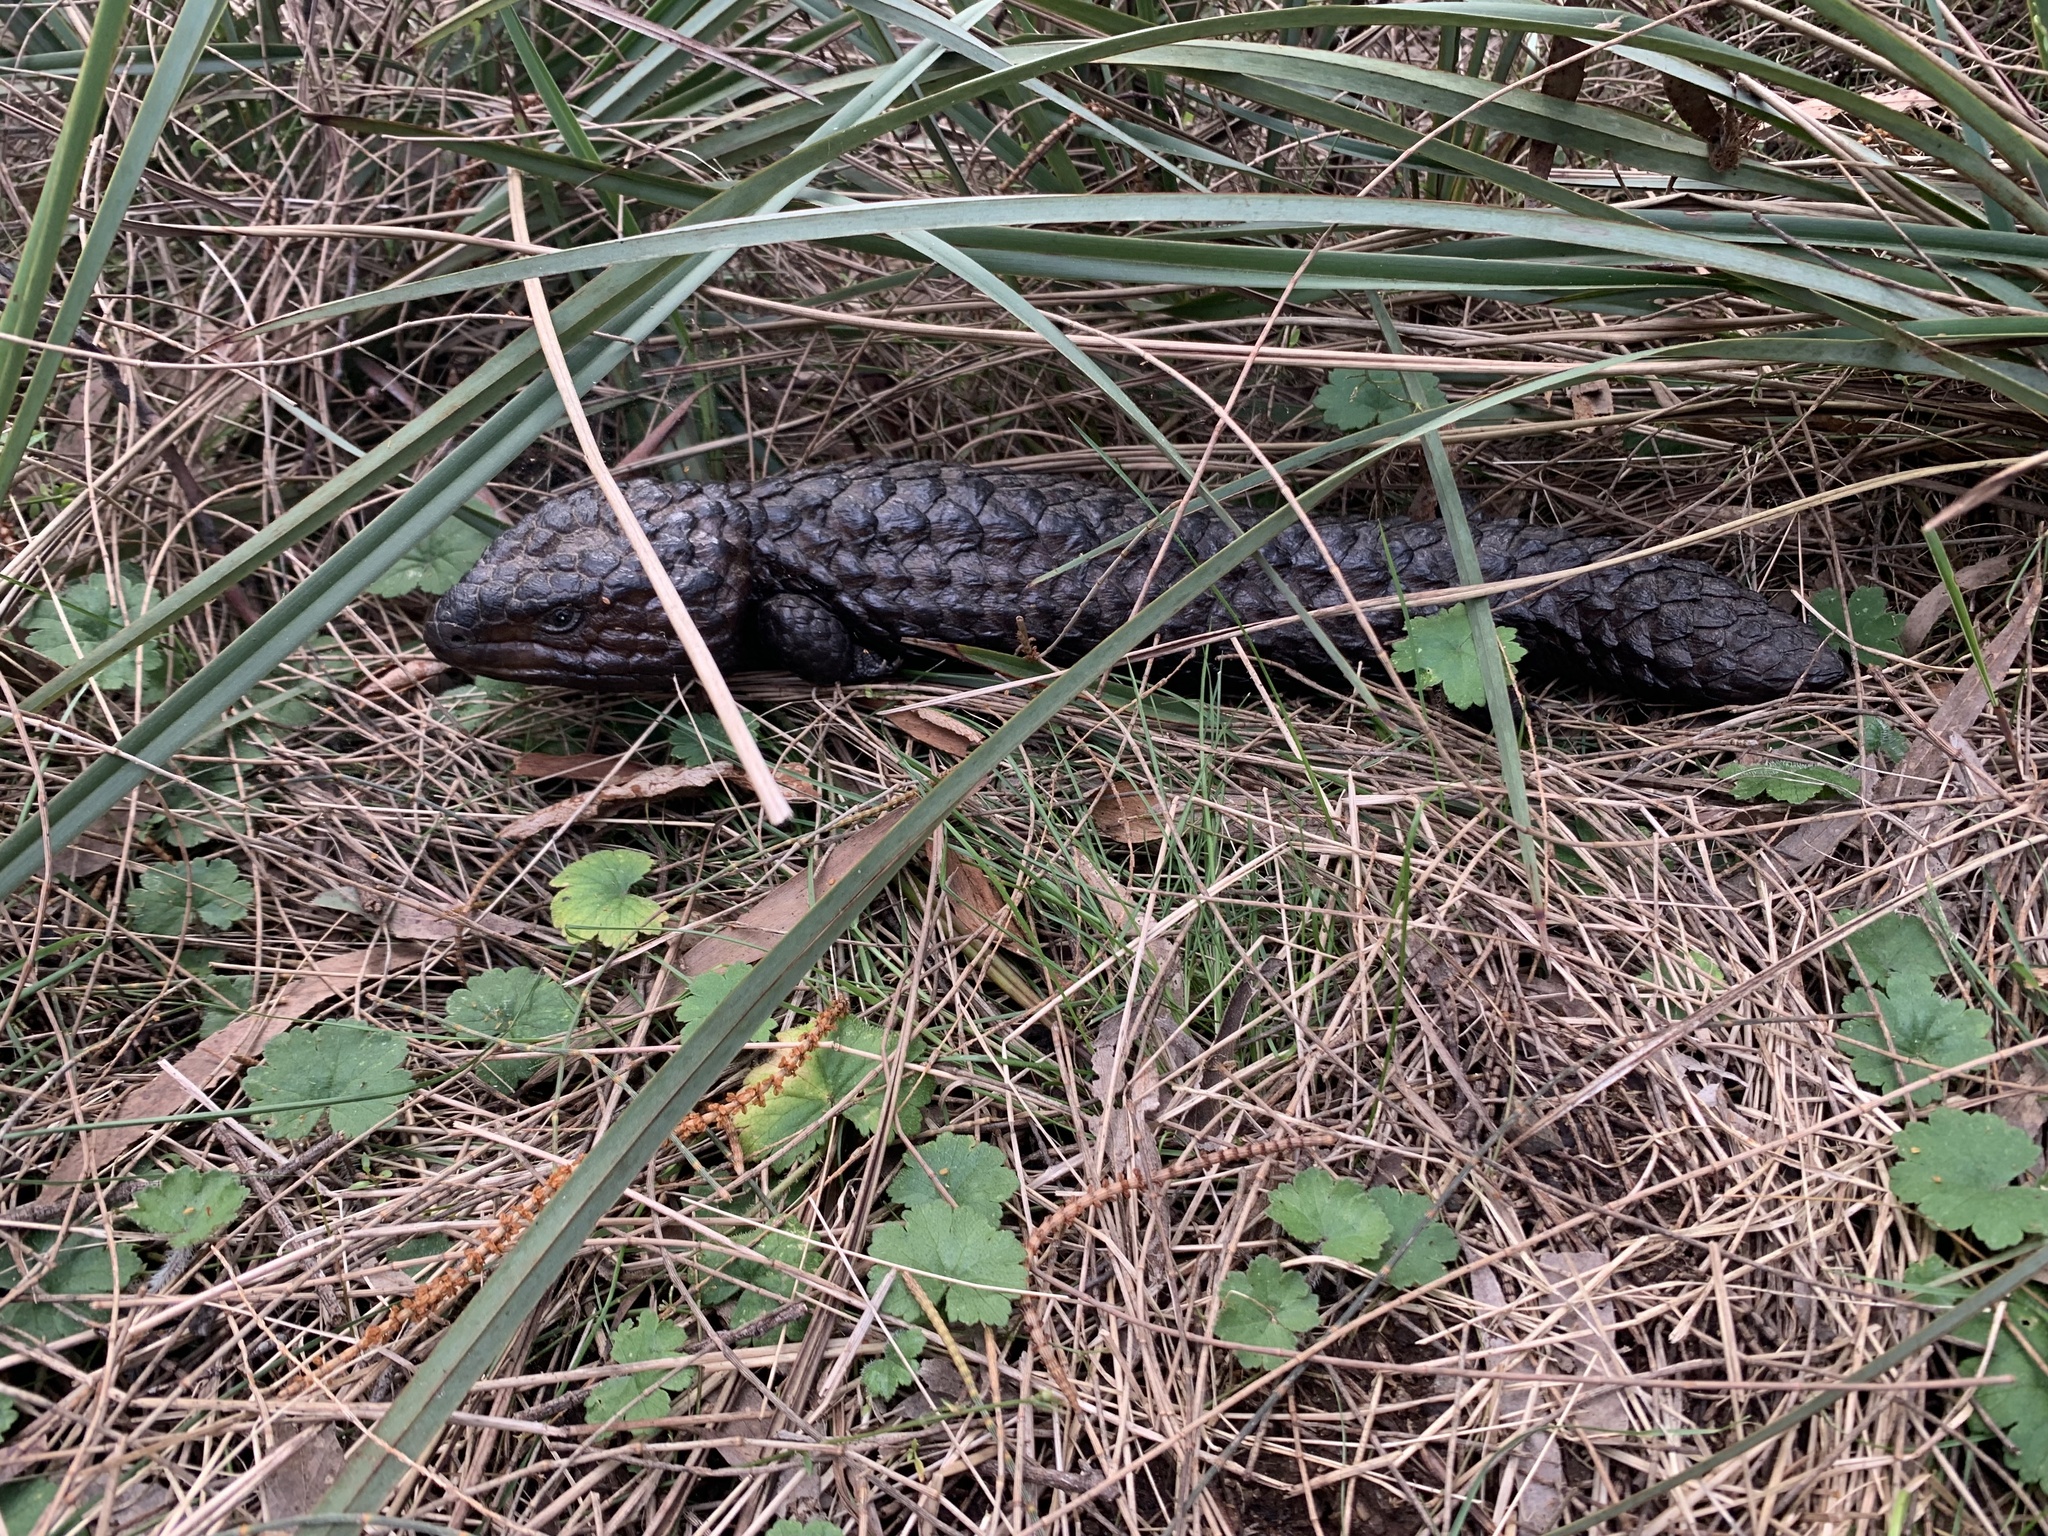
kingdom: Animalia
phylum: Chordata
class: Squamata
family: Scincidae
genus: Tiliqua
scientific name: Tiliqua rugosa
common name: Pinecone lizard
